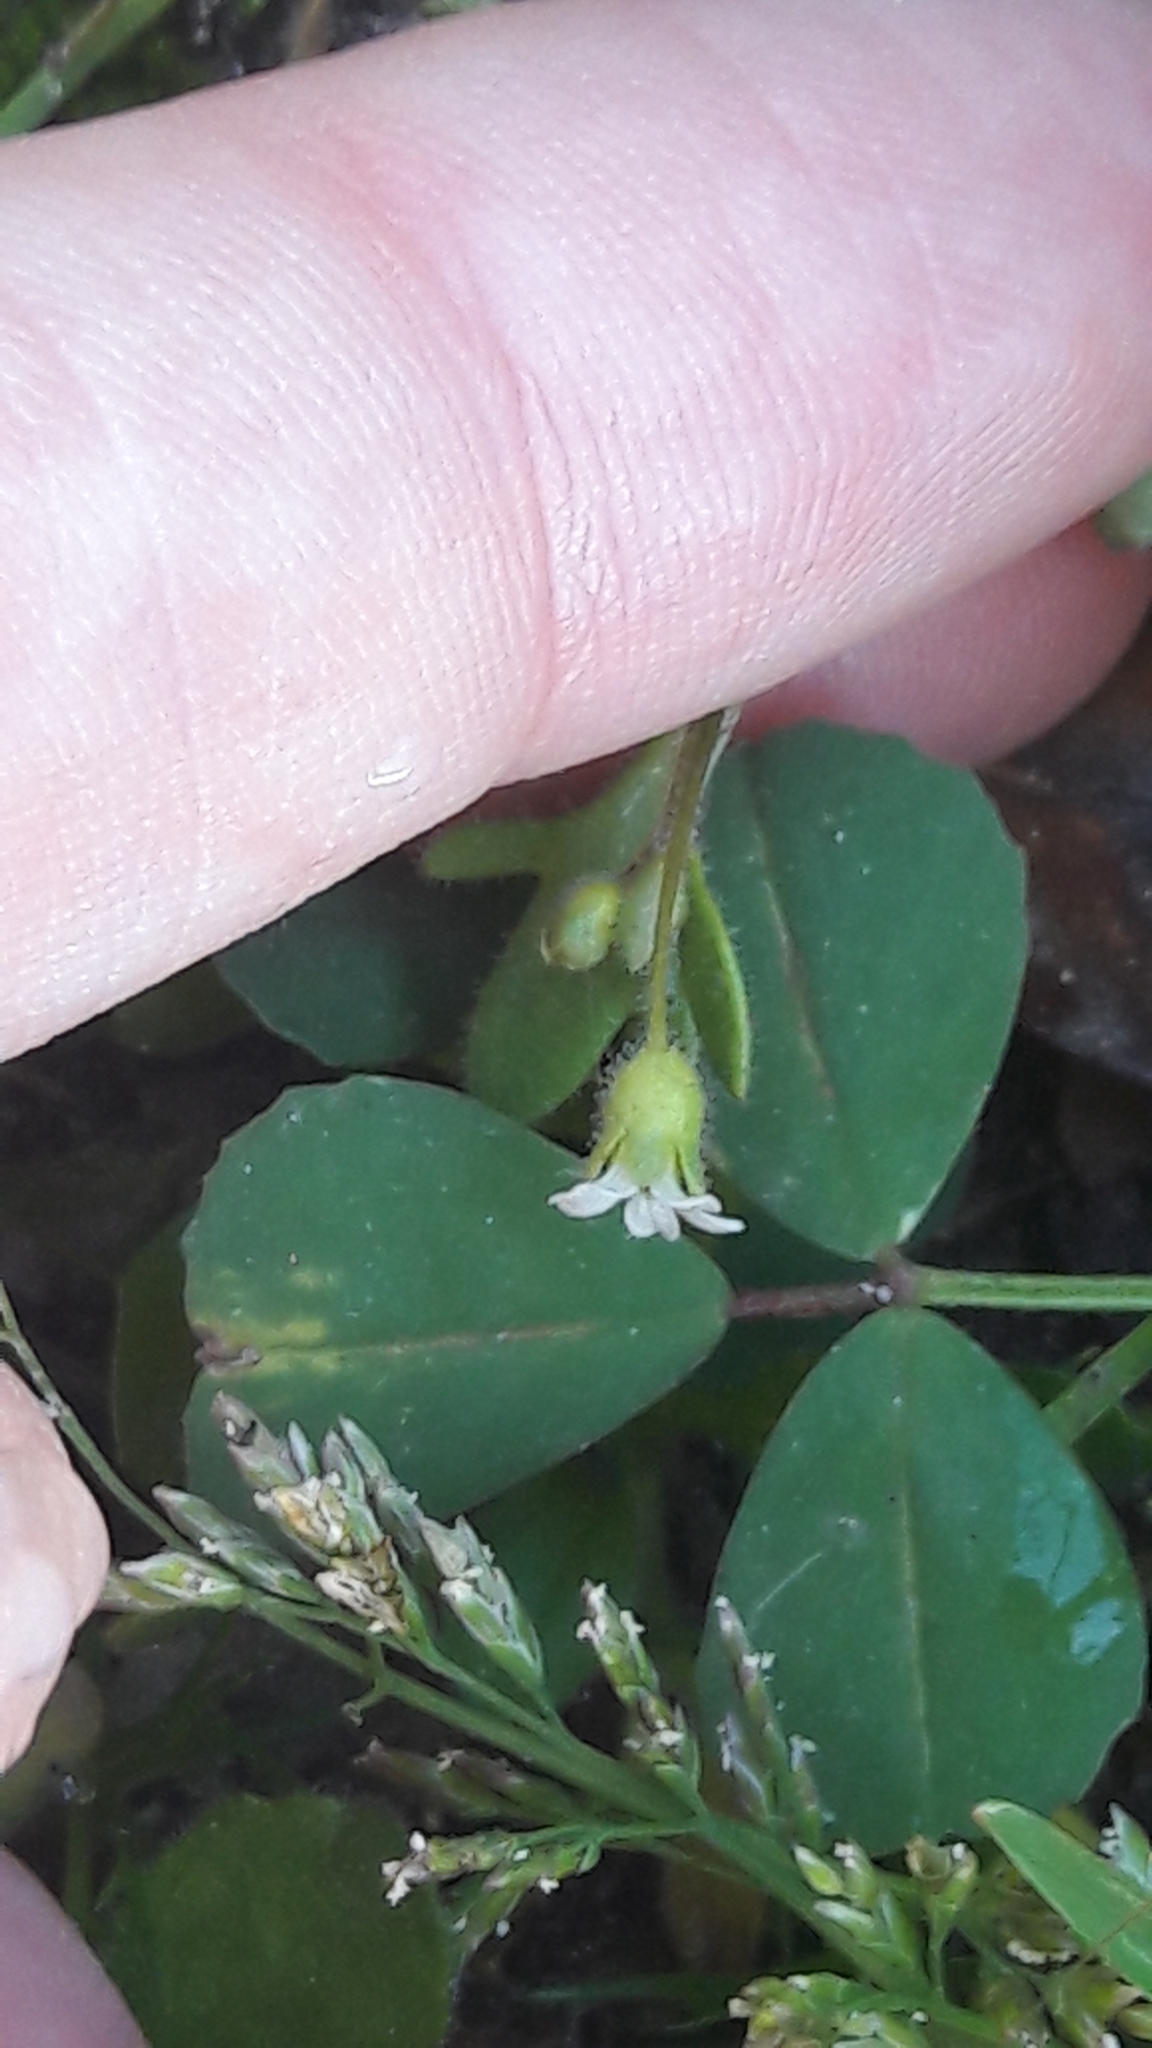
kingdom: Plantae
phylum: Tracheophyta
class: Magnoliopsida
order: Saxifragales
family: Saxifragaceae
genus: Saxifraga
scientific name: Saxifraga tridactylites
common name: Rue-leaved saxifrage
